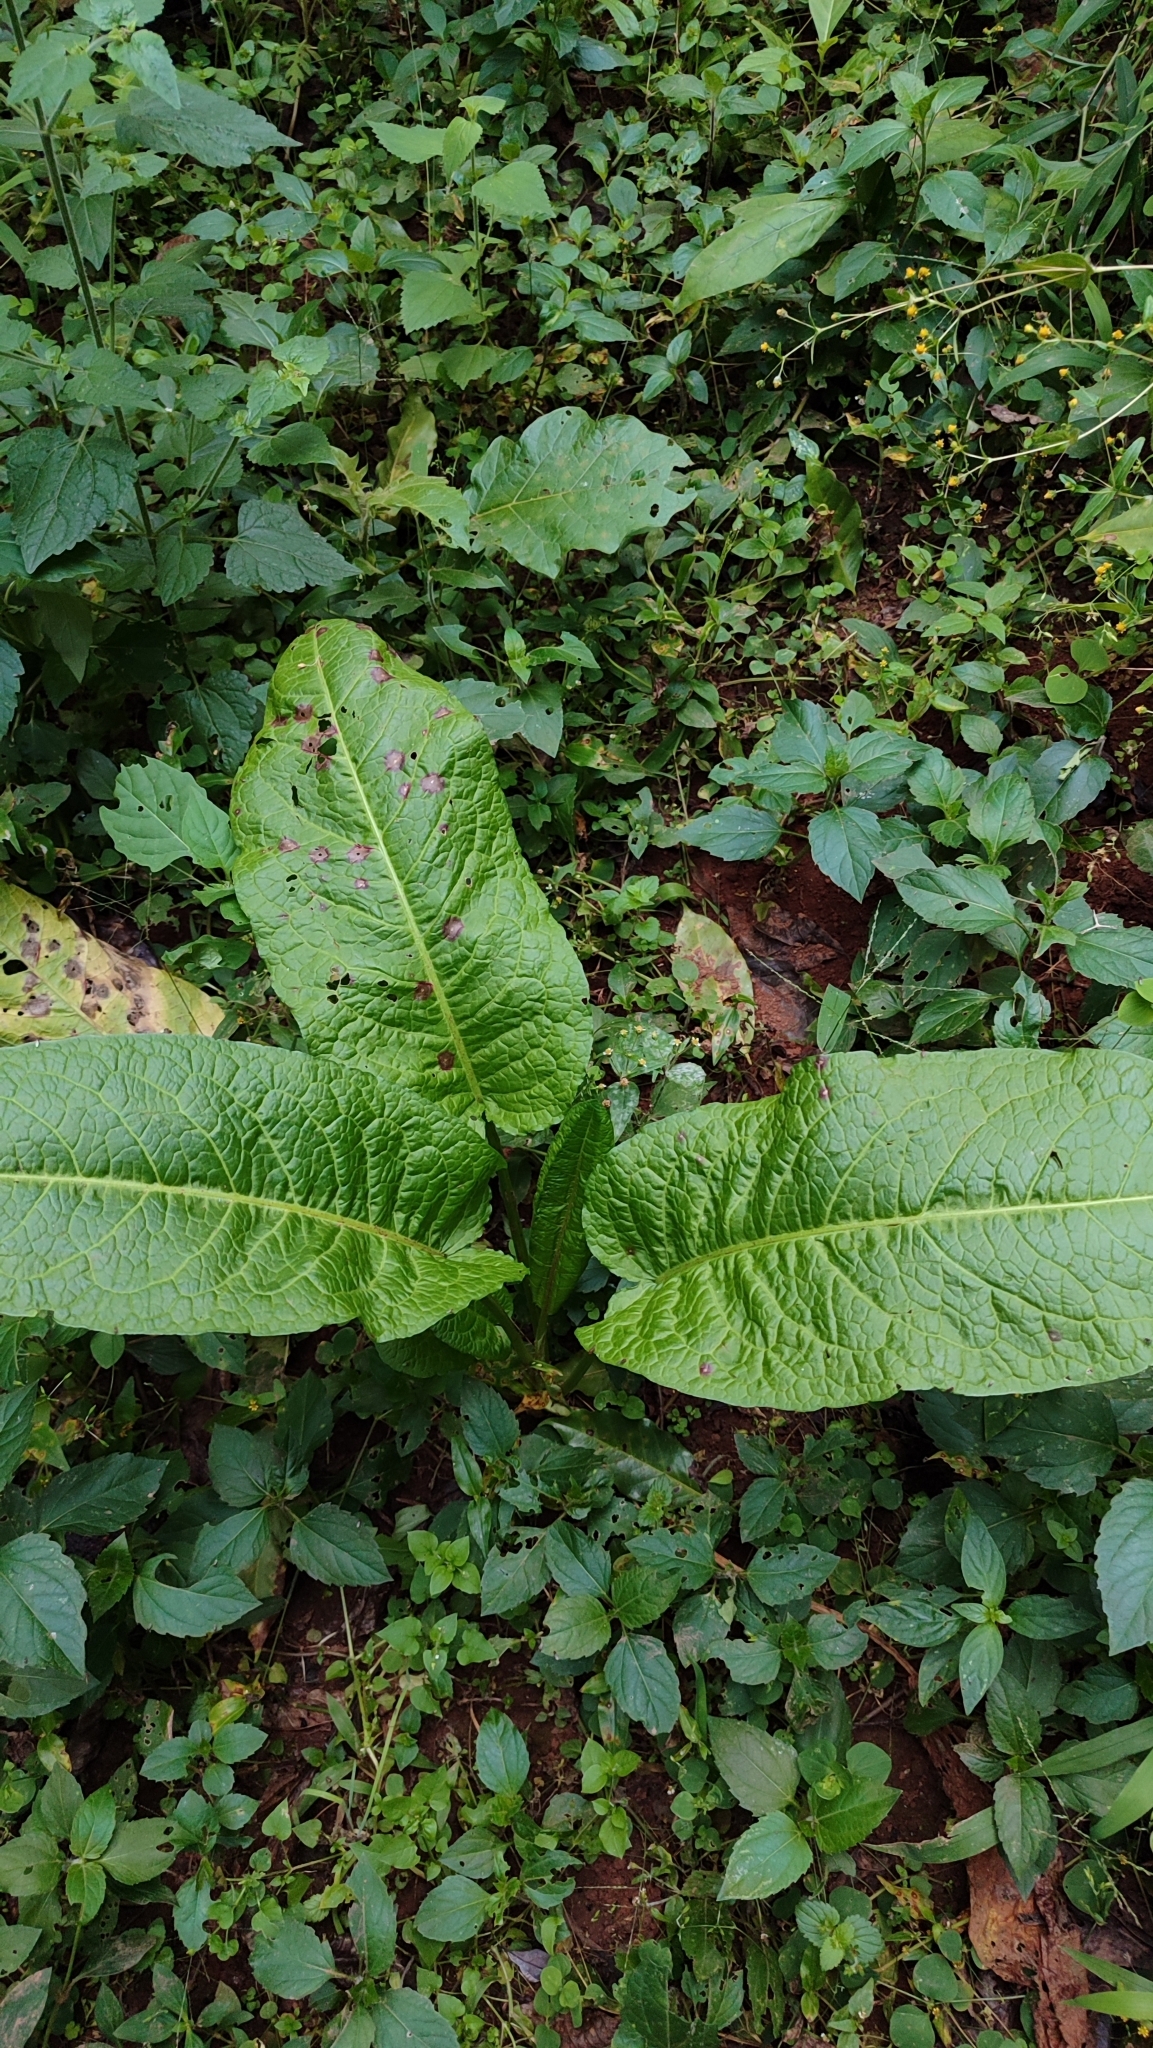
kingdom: Plantae
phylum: Tracheophyta
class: Magnoliopsida
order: Caryophyllales
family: Polygonaceae
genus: Rumex
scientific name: Rumex obtusifolius
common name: Bitter dock
